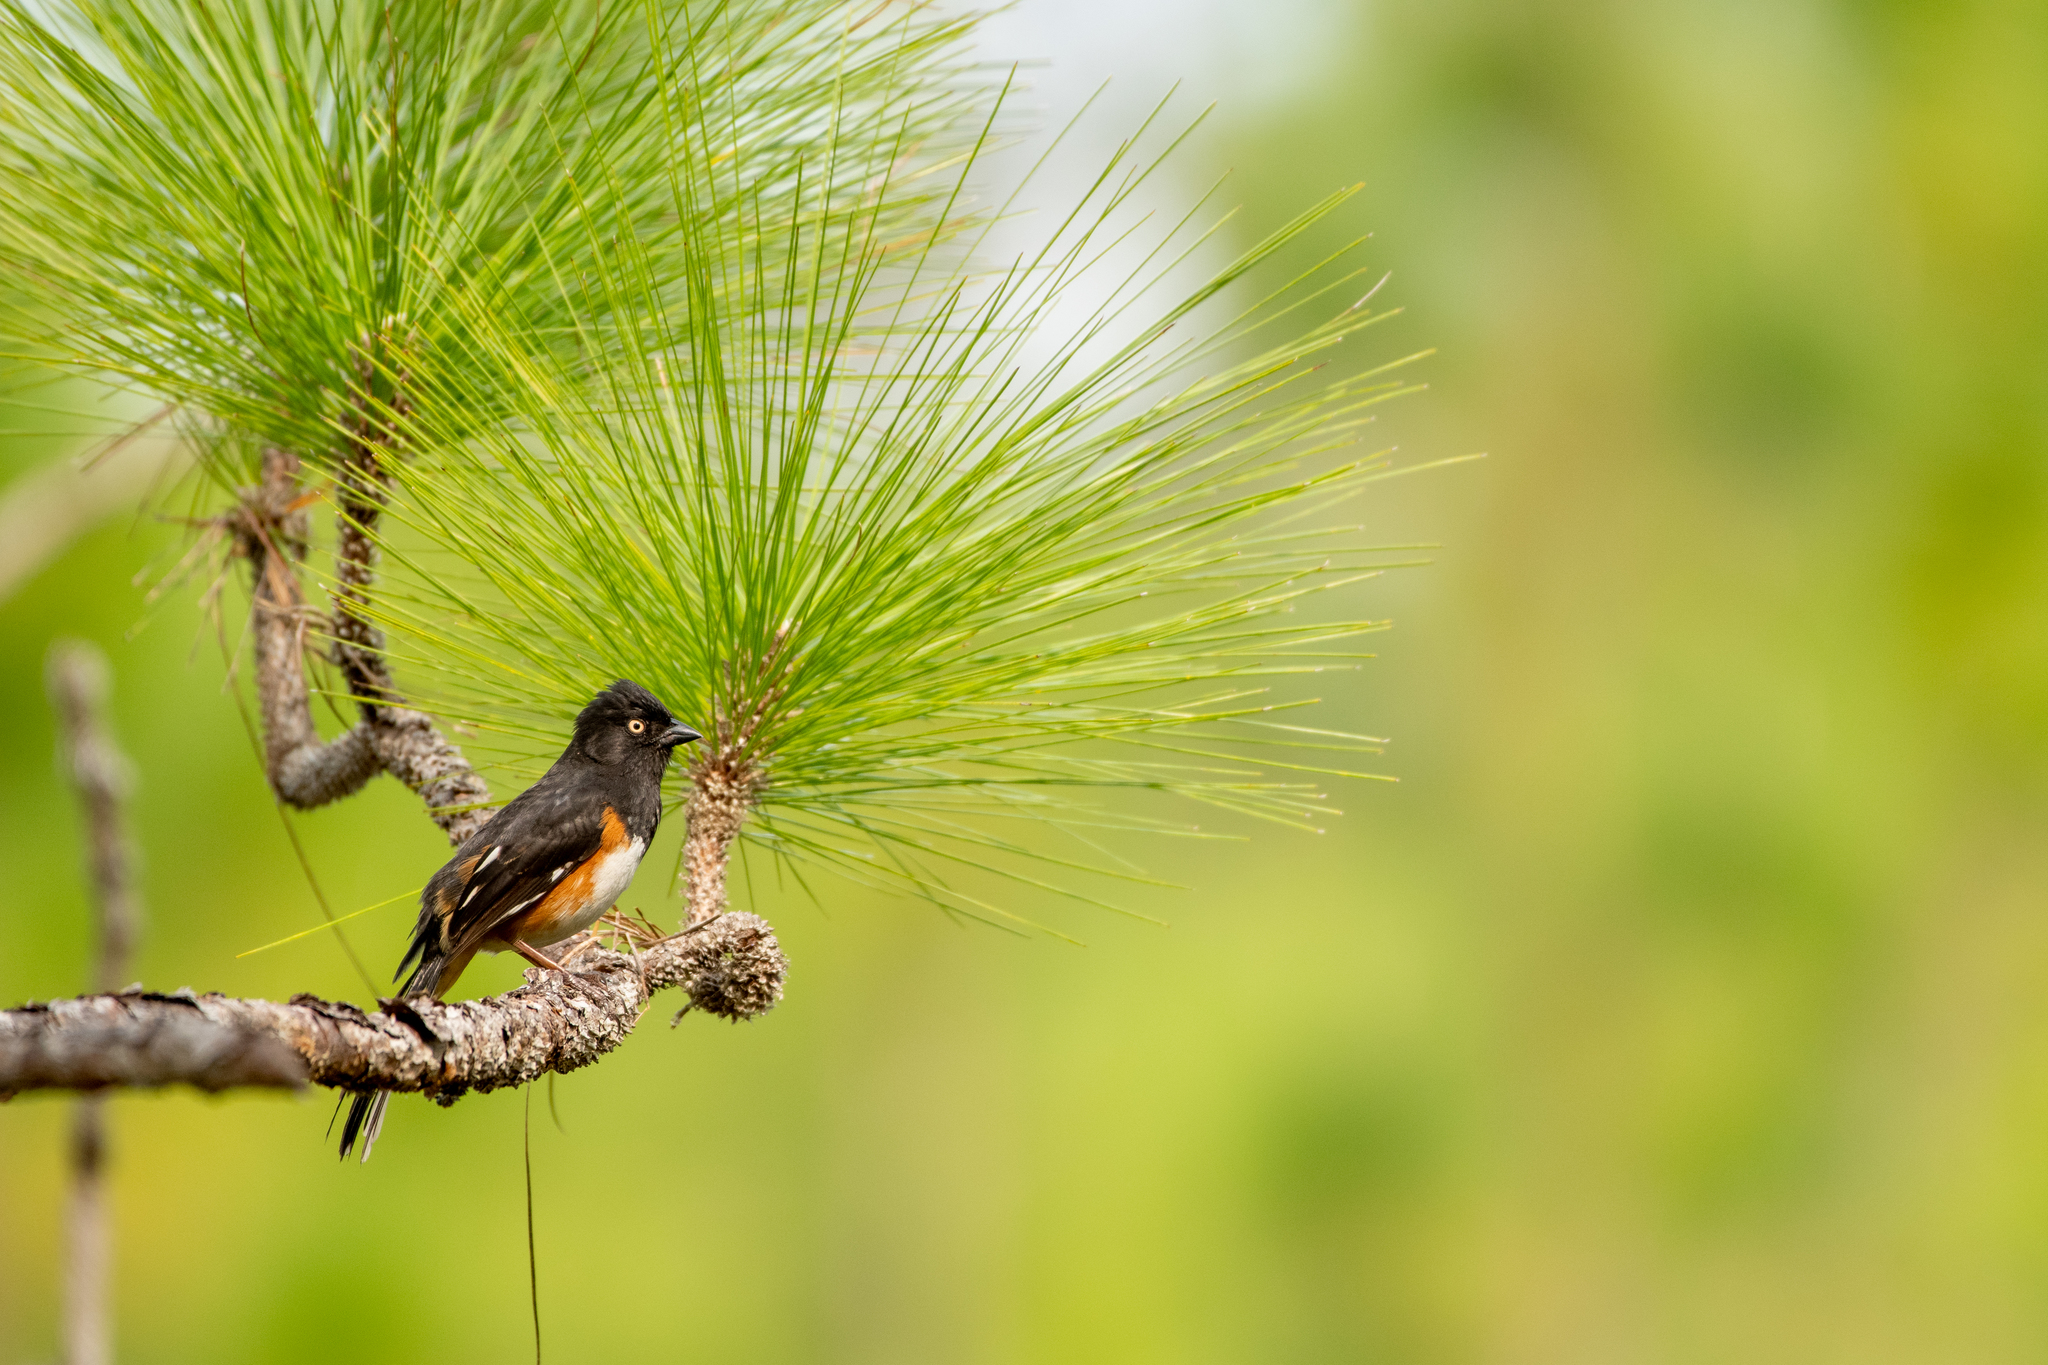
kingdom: Animalia
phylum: Chordata
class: Aves
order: Passeriformes
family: Passerellidae
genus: Pipilo
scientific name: Pipilo erythrophthalmus
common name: Eastern towhee
